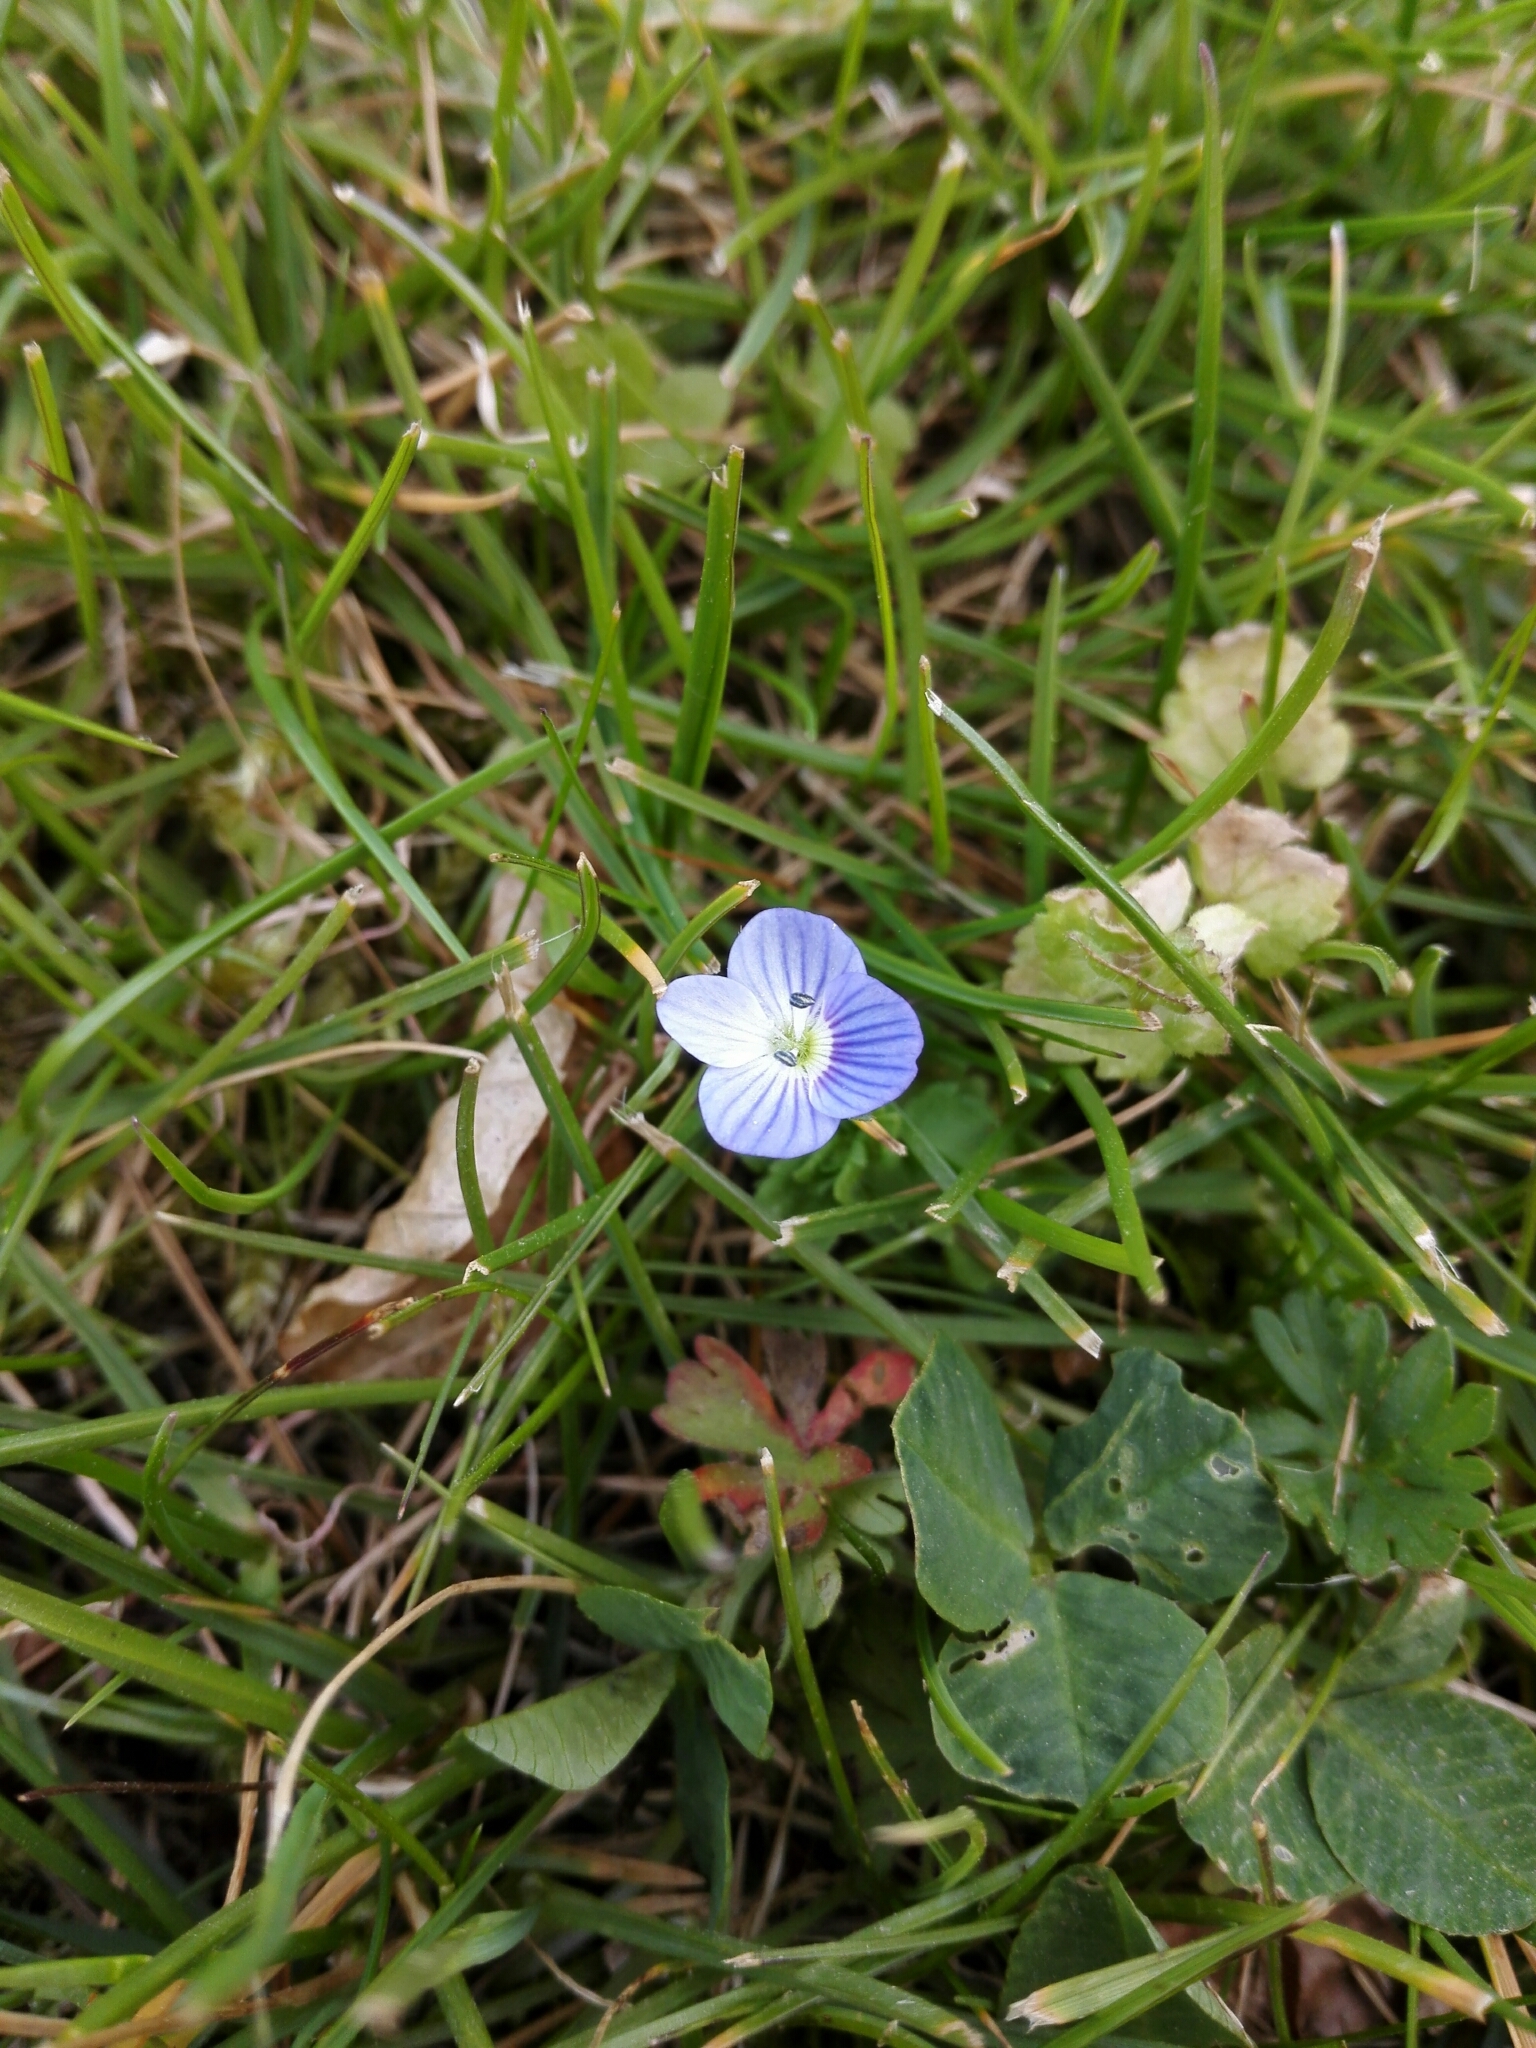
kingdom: Plantae
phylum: Tracheophyta
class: Magnoliopsida
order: Lamiales
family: Plantaginaceae
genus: Veronica
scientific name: Veronica persica
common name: Common field-speedwell
